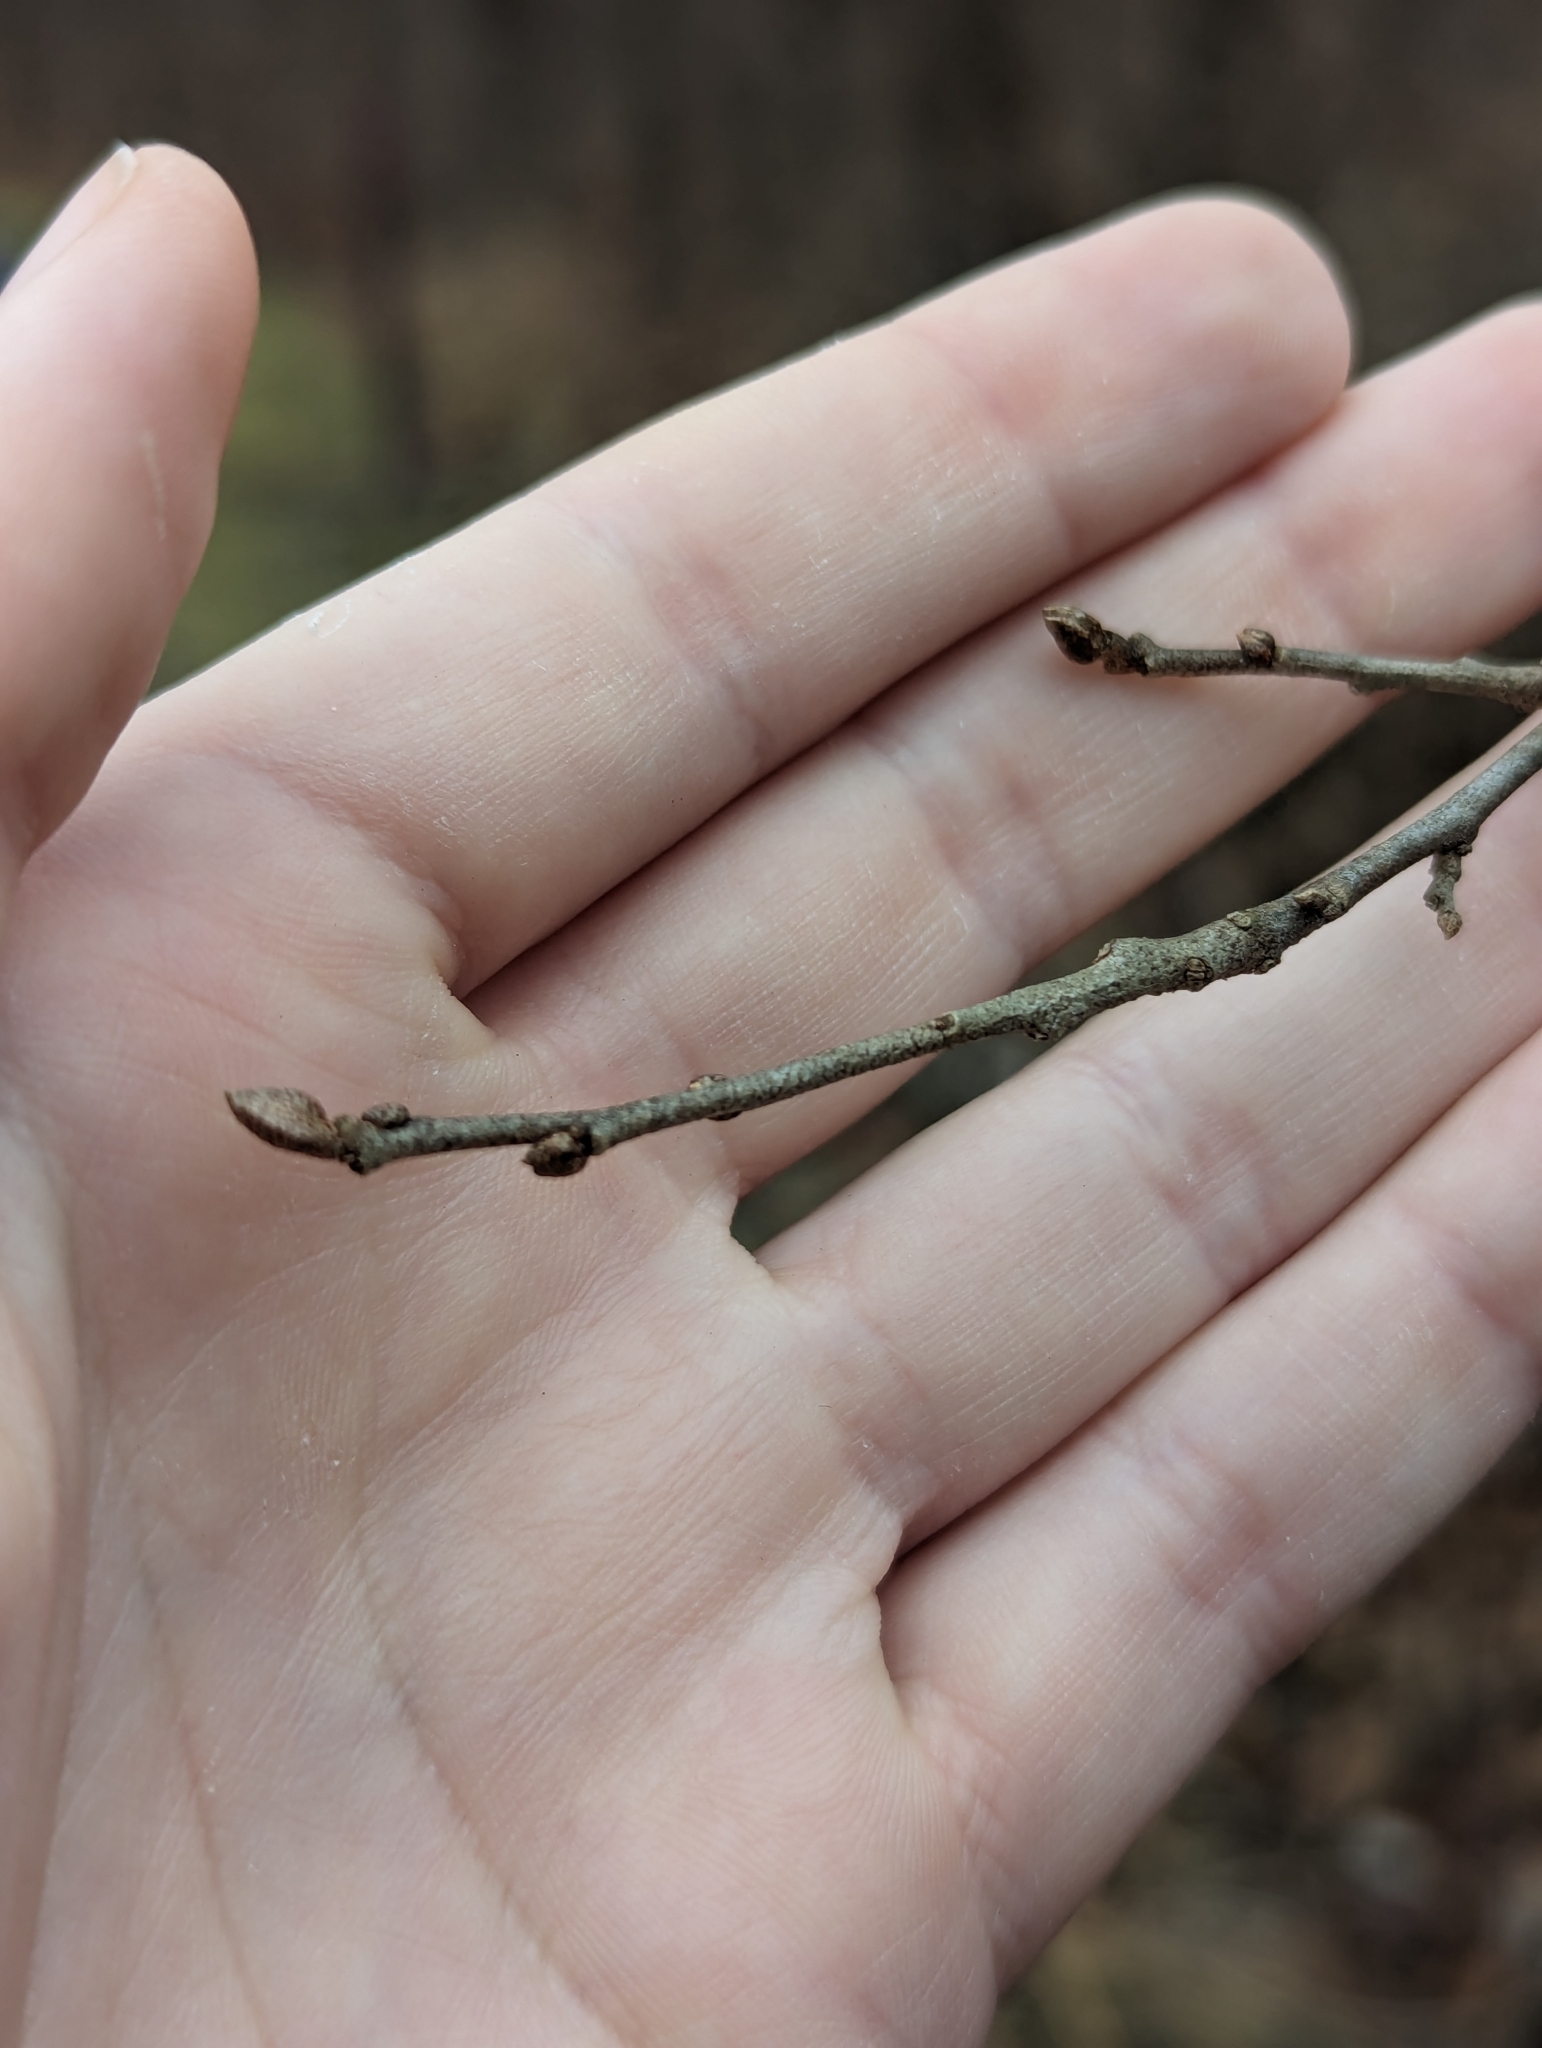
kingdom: Plantae
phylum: Tracheophyta
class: Magnoliopsida
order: Rosales
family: Elaeagnaceae
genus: Elaeagnus
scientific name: Elaeagnus umbellata
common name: Autumn olive
